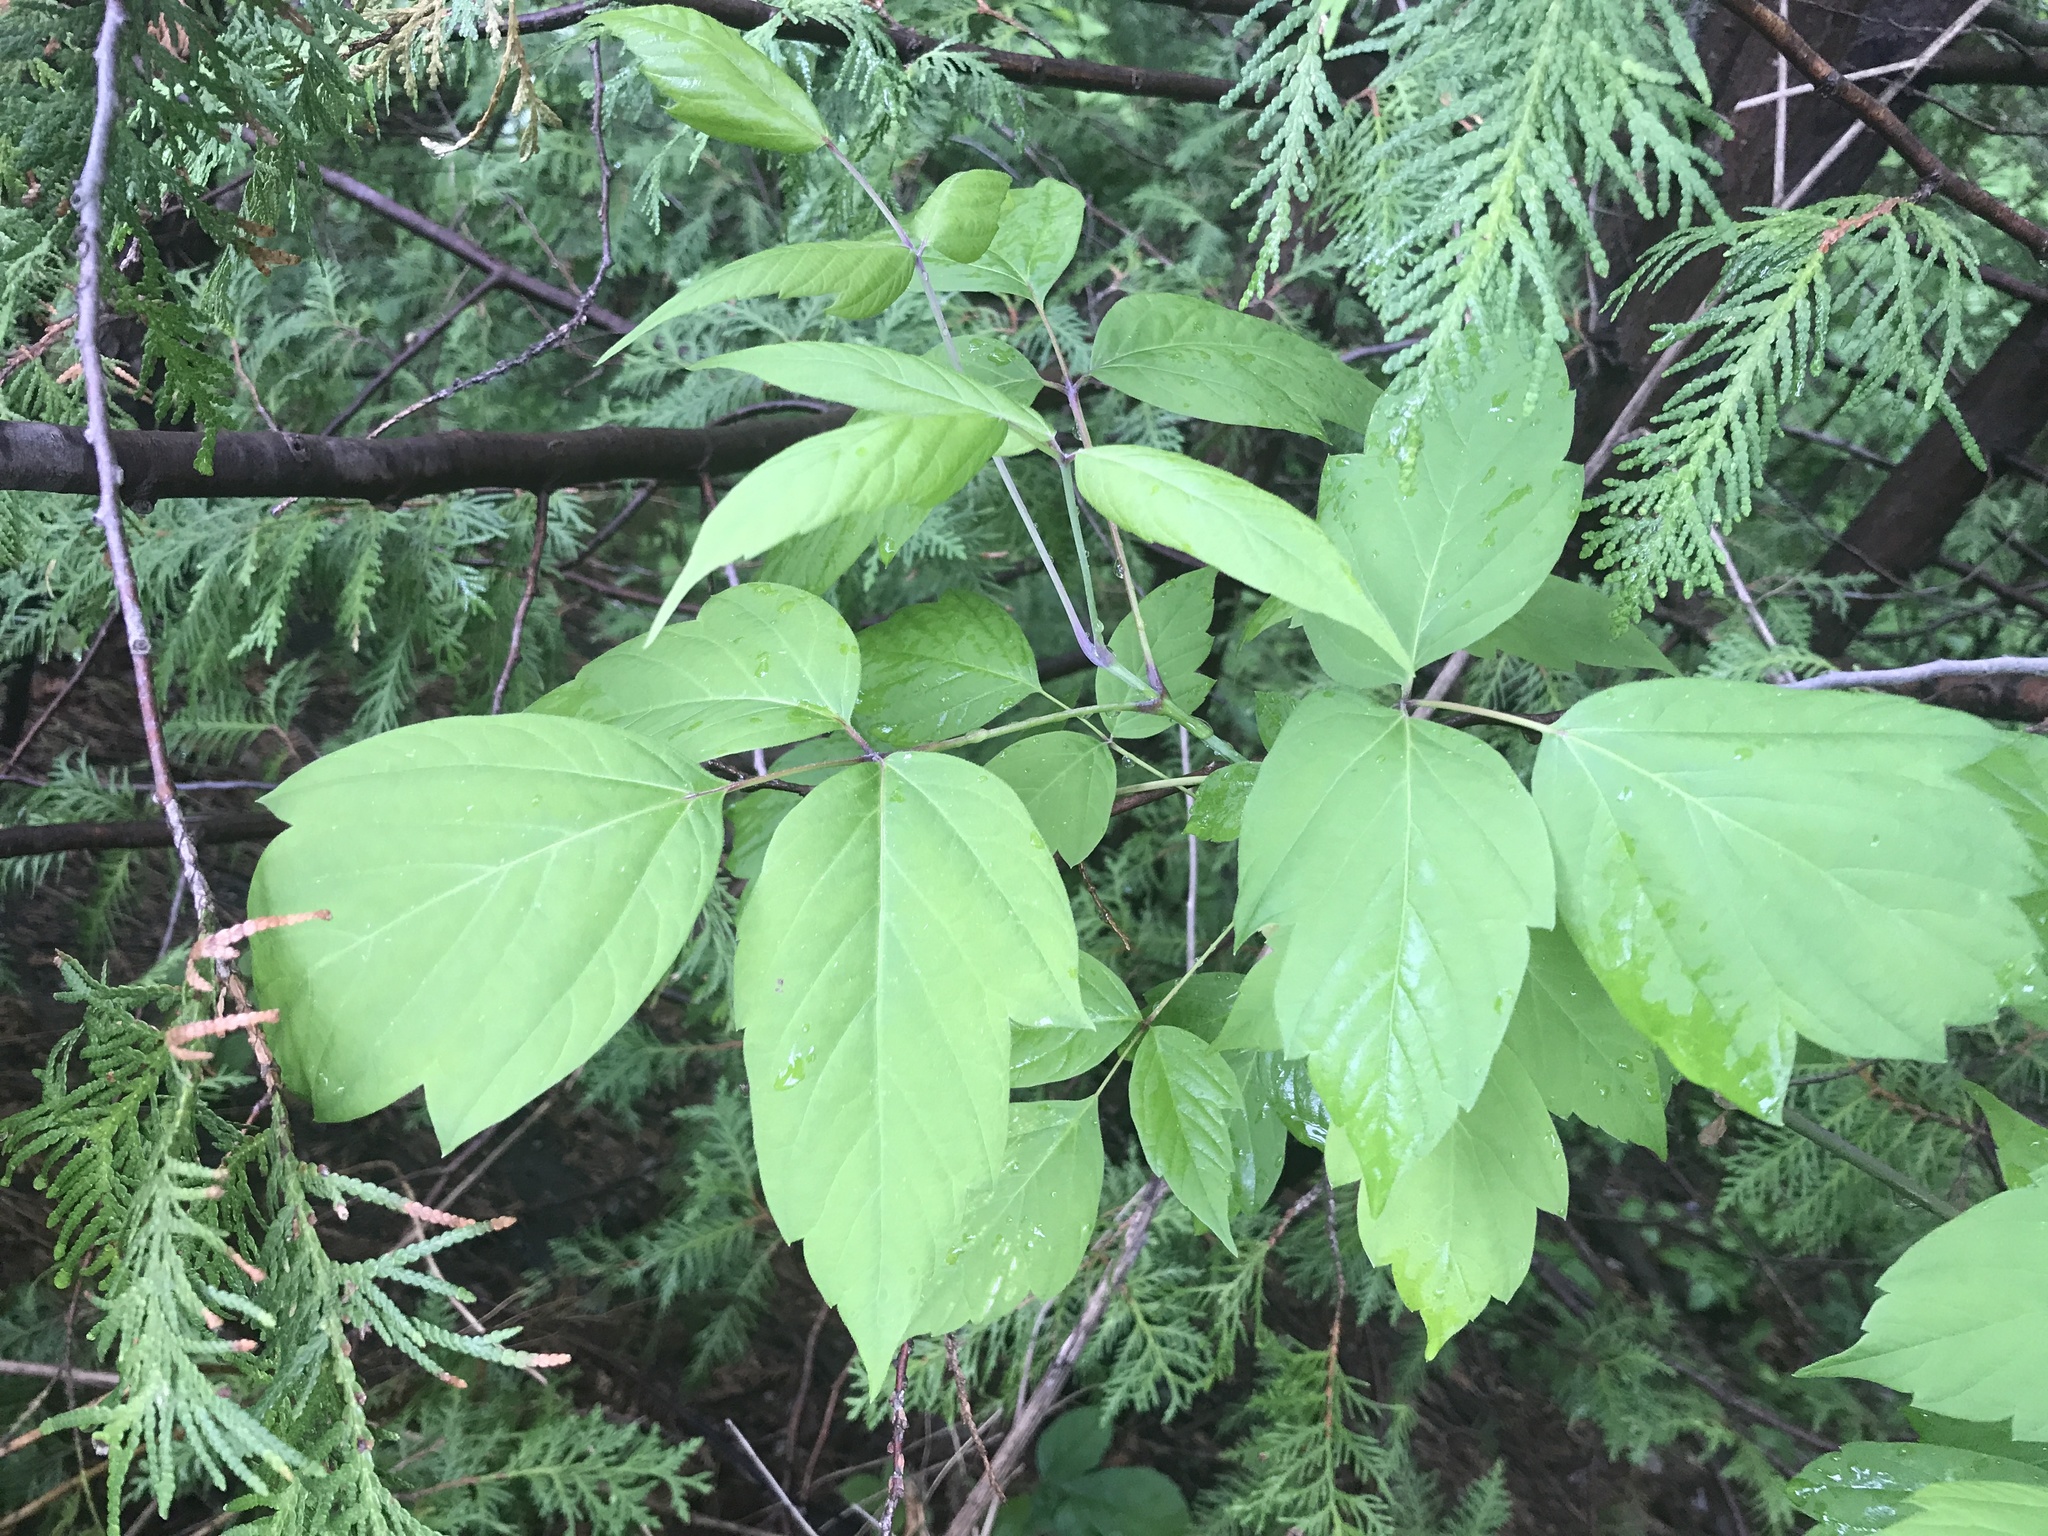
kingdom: Plantae
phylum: Tracheophyta
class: Magnoliopsida
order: Sapindales
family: Sapindaceae
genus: Acer
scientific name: Acer negundo
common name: Ashleaf maple
